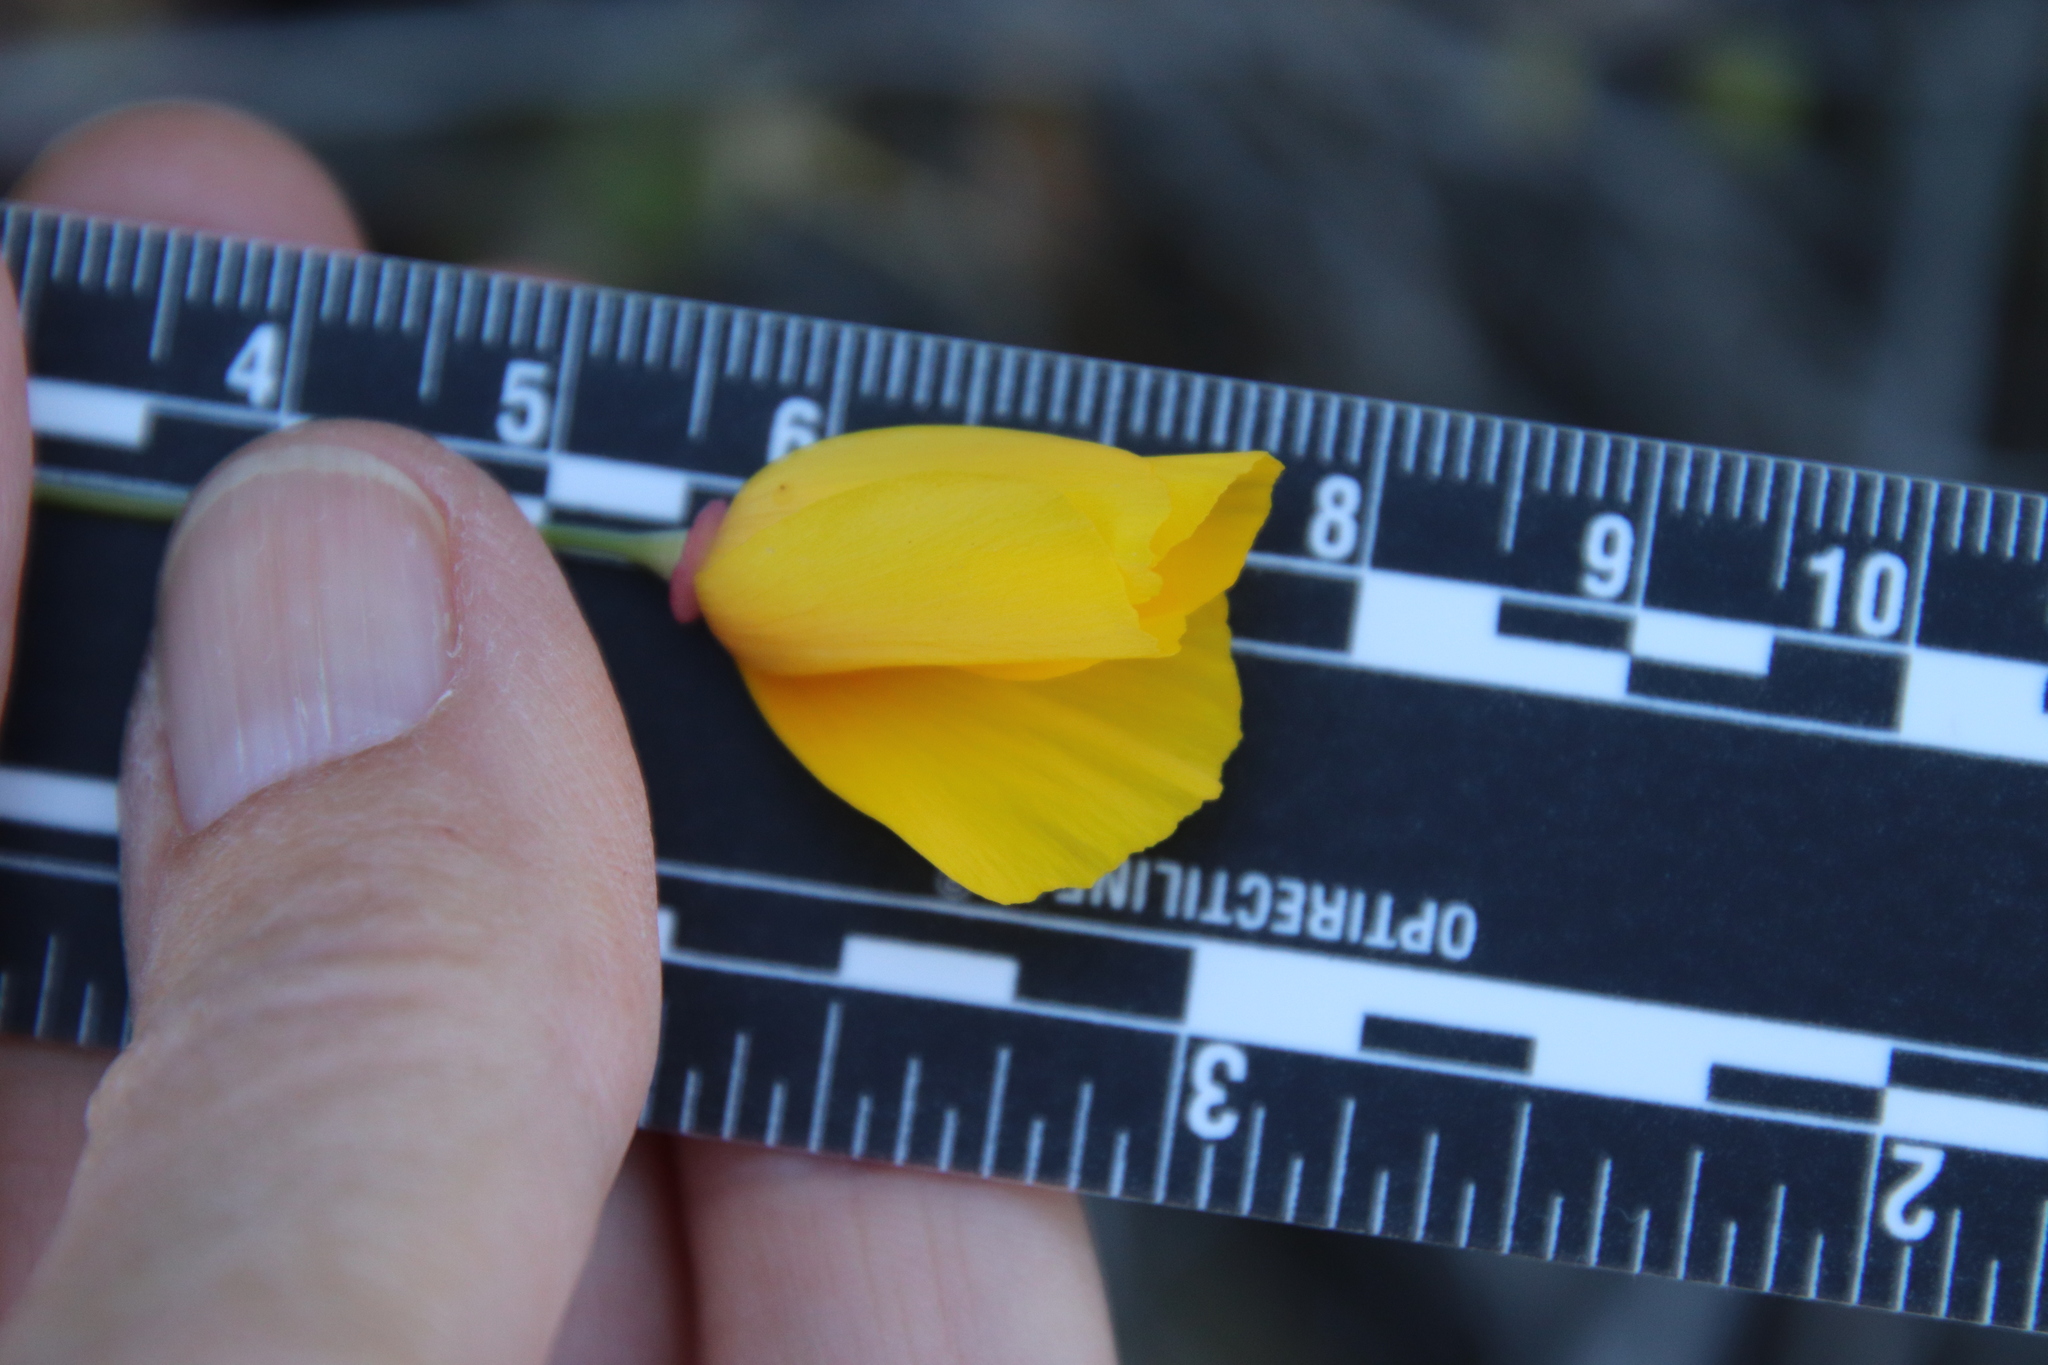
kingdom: Plantae
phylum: Tracheophyta
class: Magnoliopsida
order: Ranunculales
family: Papaveraceae
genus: Eschscholzia
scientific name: Eschscholzia californica
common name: California poppy
